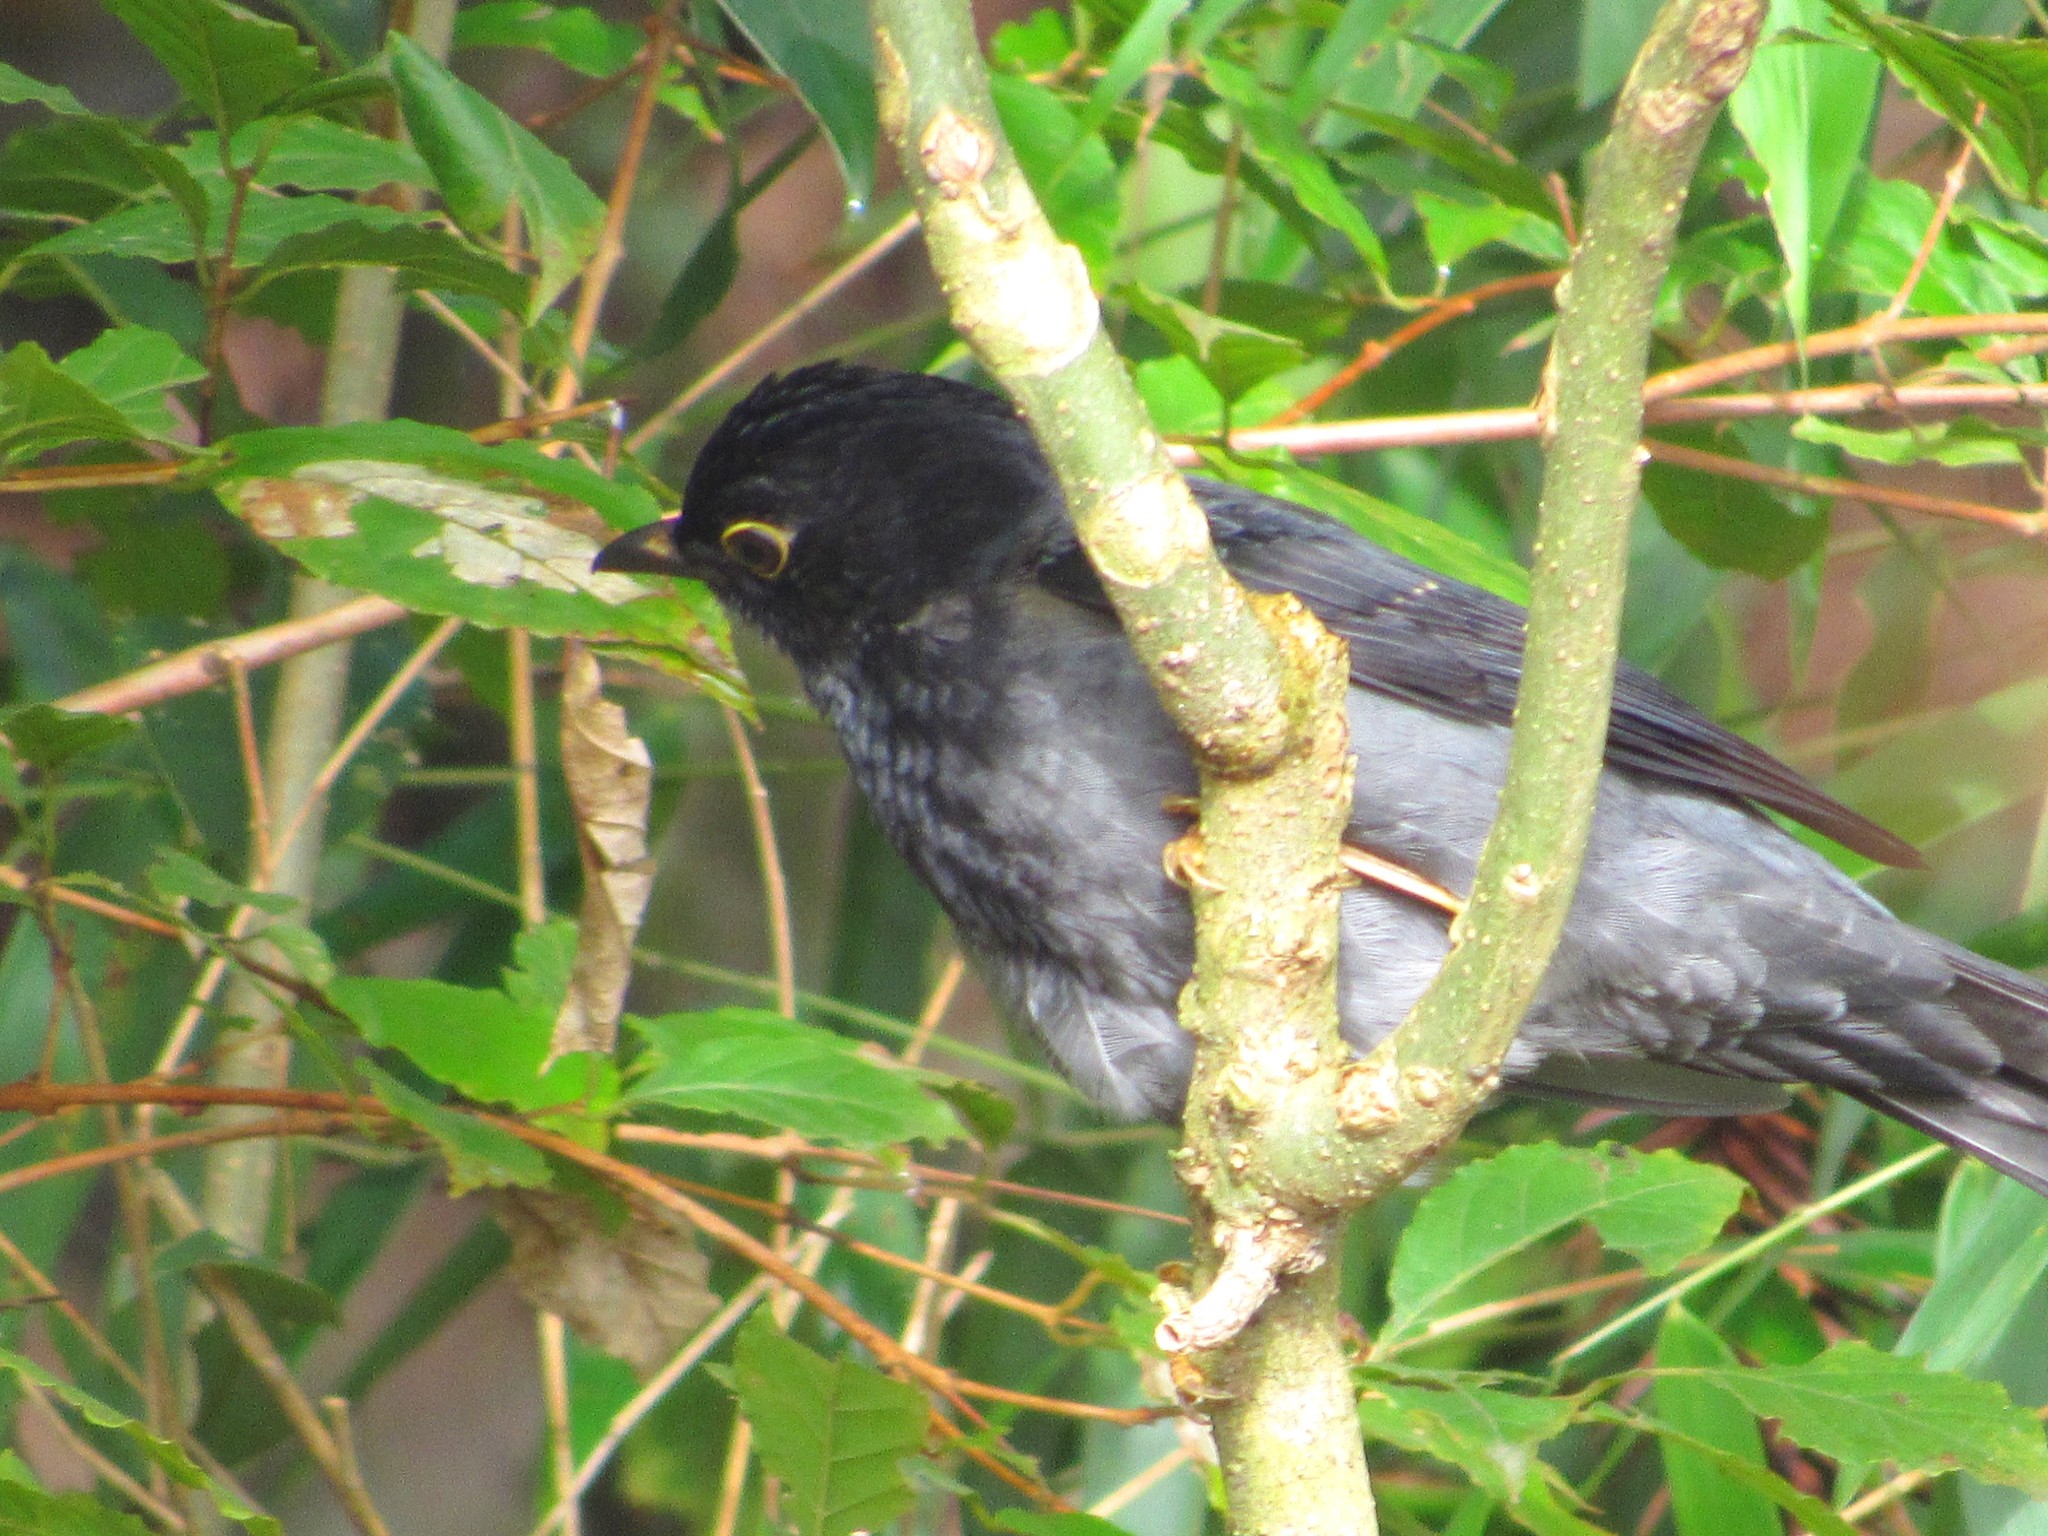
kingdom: Animalia
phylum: Chordata
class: Aves
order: Passeriformes
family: Turdidae
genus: Turdus
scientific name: Turdus flavipes
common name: Yellow-legged thrush
